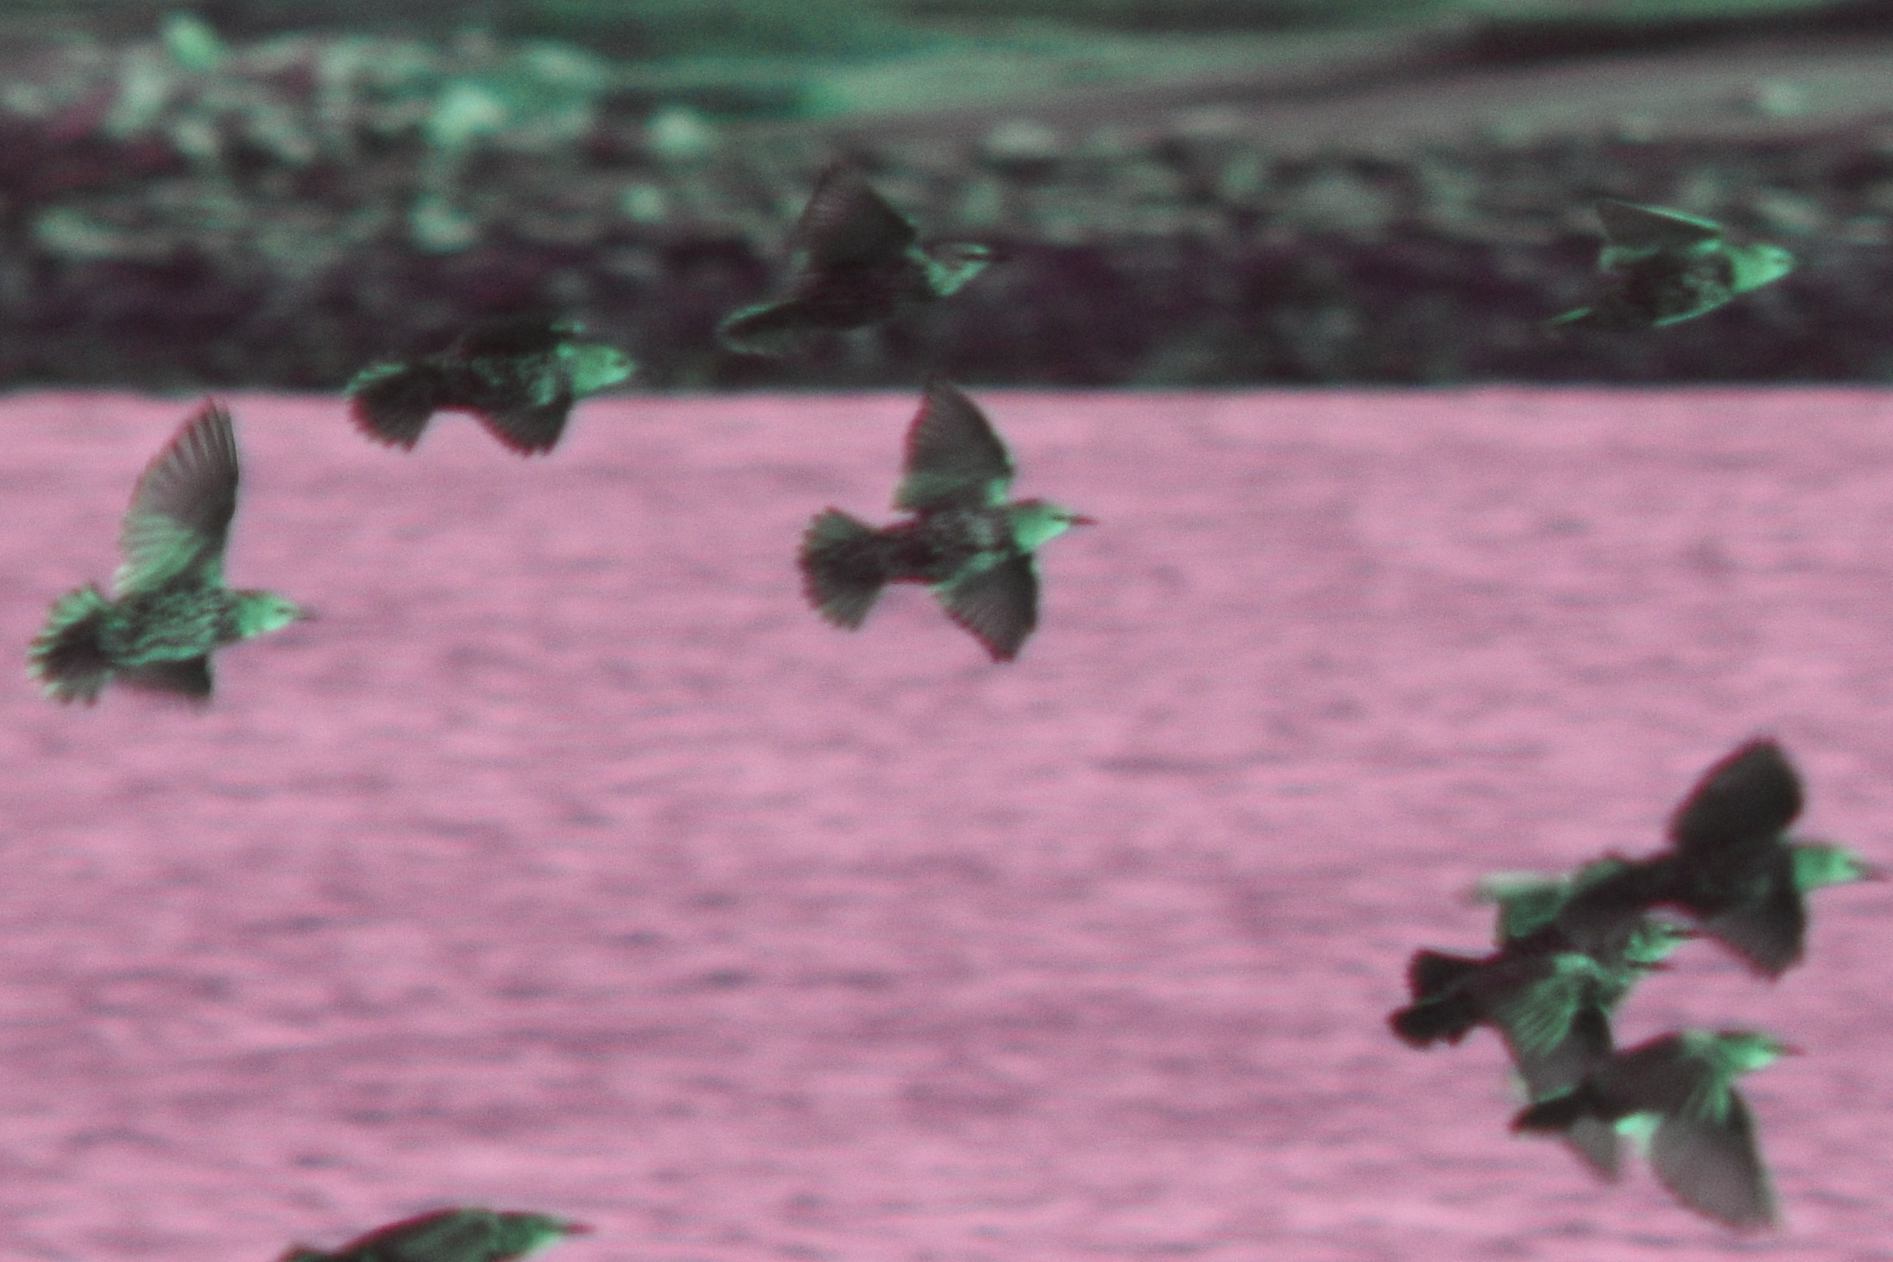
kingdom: Animalia
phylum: Chordata
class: Aves
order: Passeriformes
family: Sturnidae
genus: Sturnus
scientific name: Sturnus vulgaris
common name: Common starling
